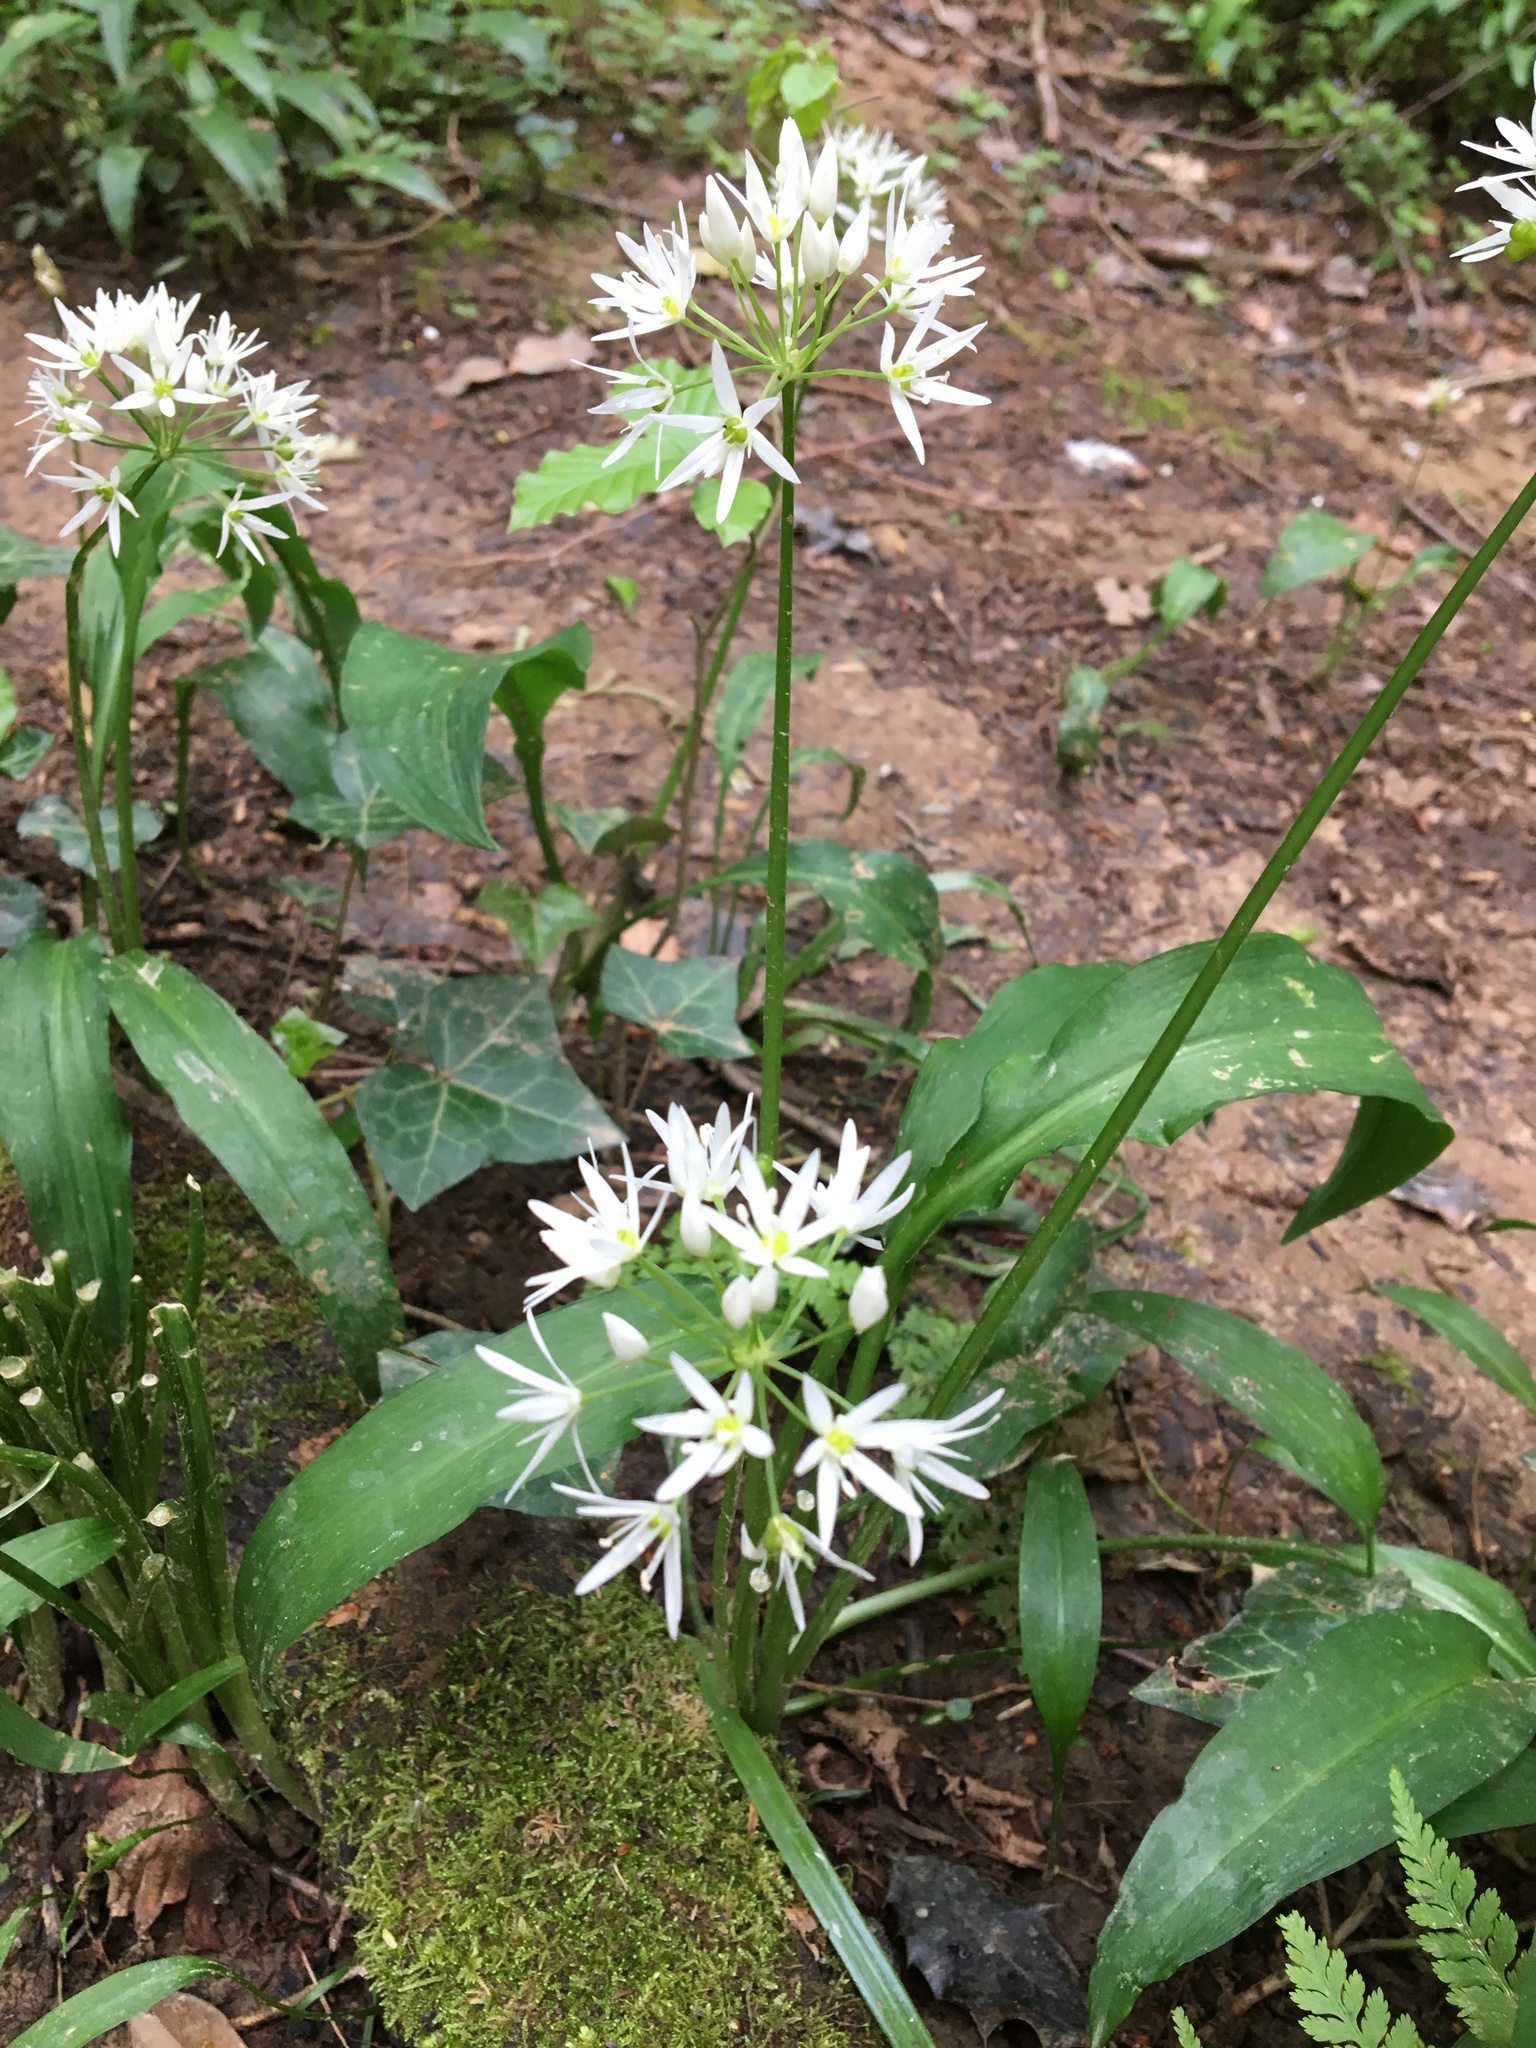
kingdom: Plantae
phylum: Tracheophyta
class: Liliopsida
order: Asparagales
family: Amaryllidaceae
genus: Allium
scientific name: Allium ursinum
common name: Ramsons
